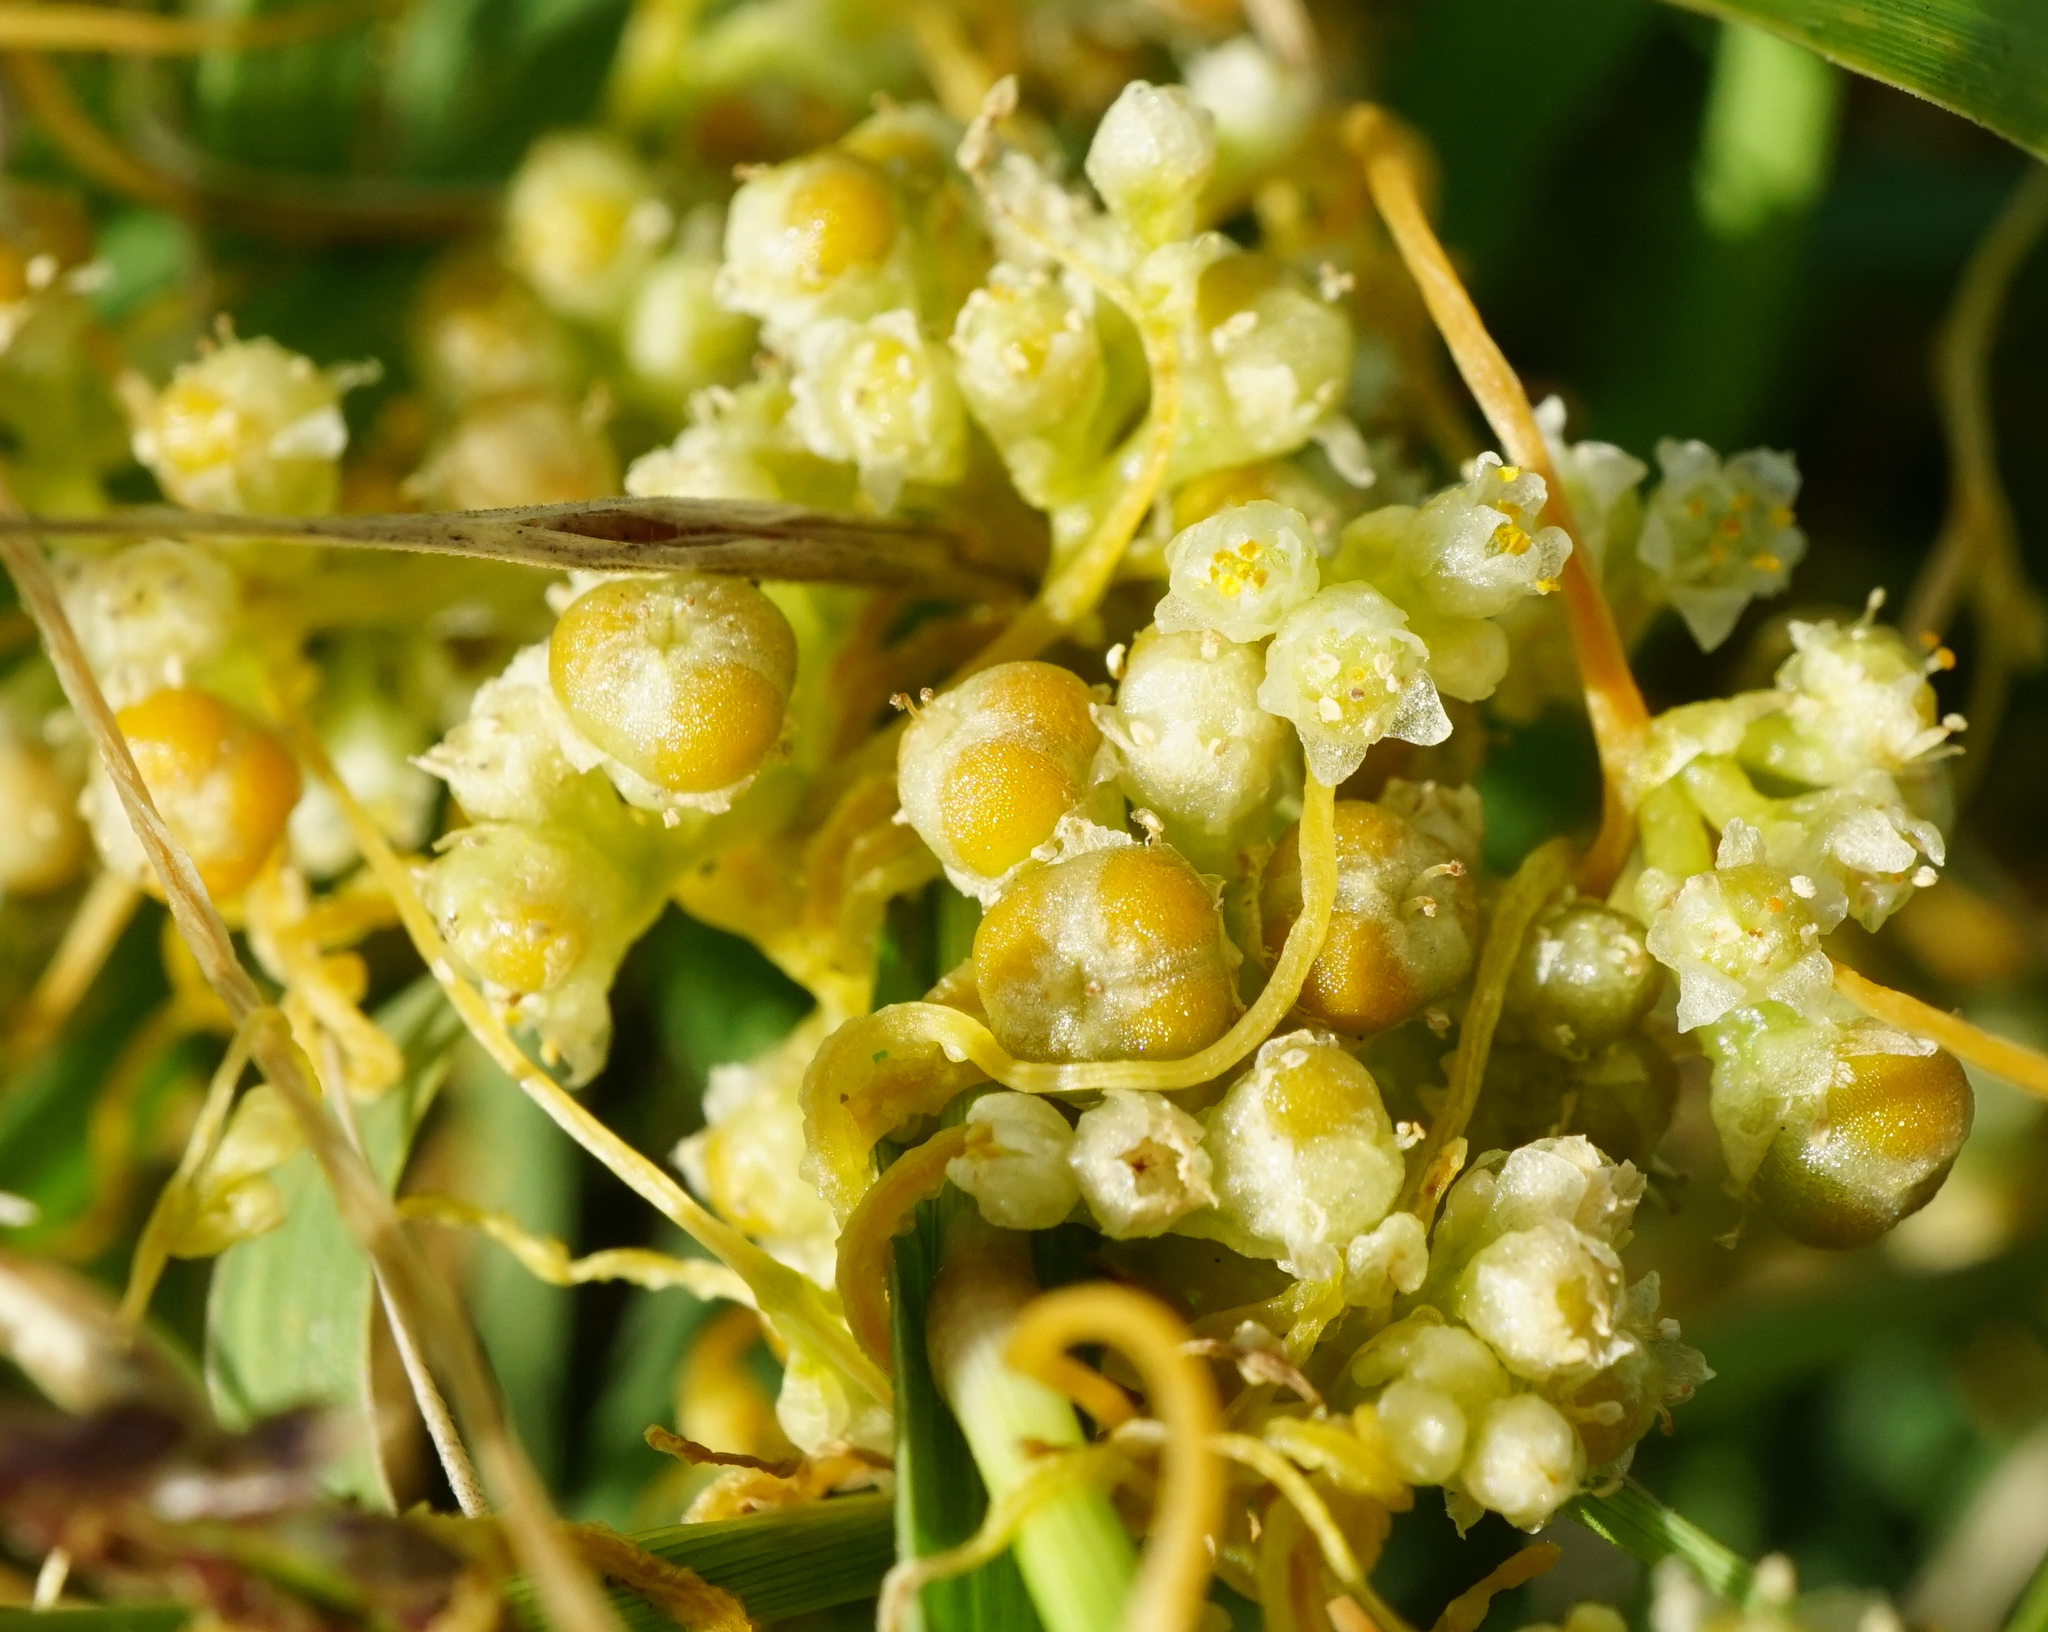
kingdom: Plantae
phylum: Tracheophyta
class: Magnoliopsida
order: Solanales
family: Convolvulaceae
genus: Cuscuta
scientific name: Cuscuta campestris
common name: Yellow dodder
